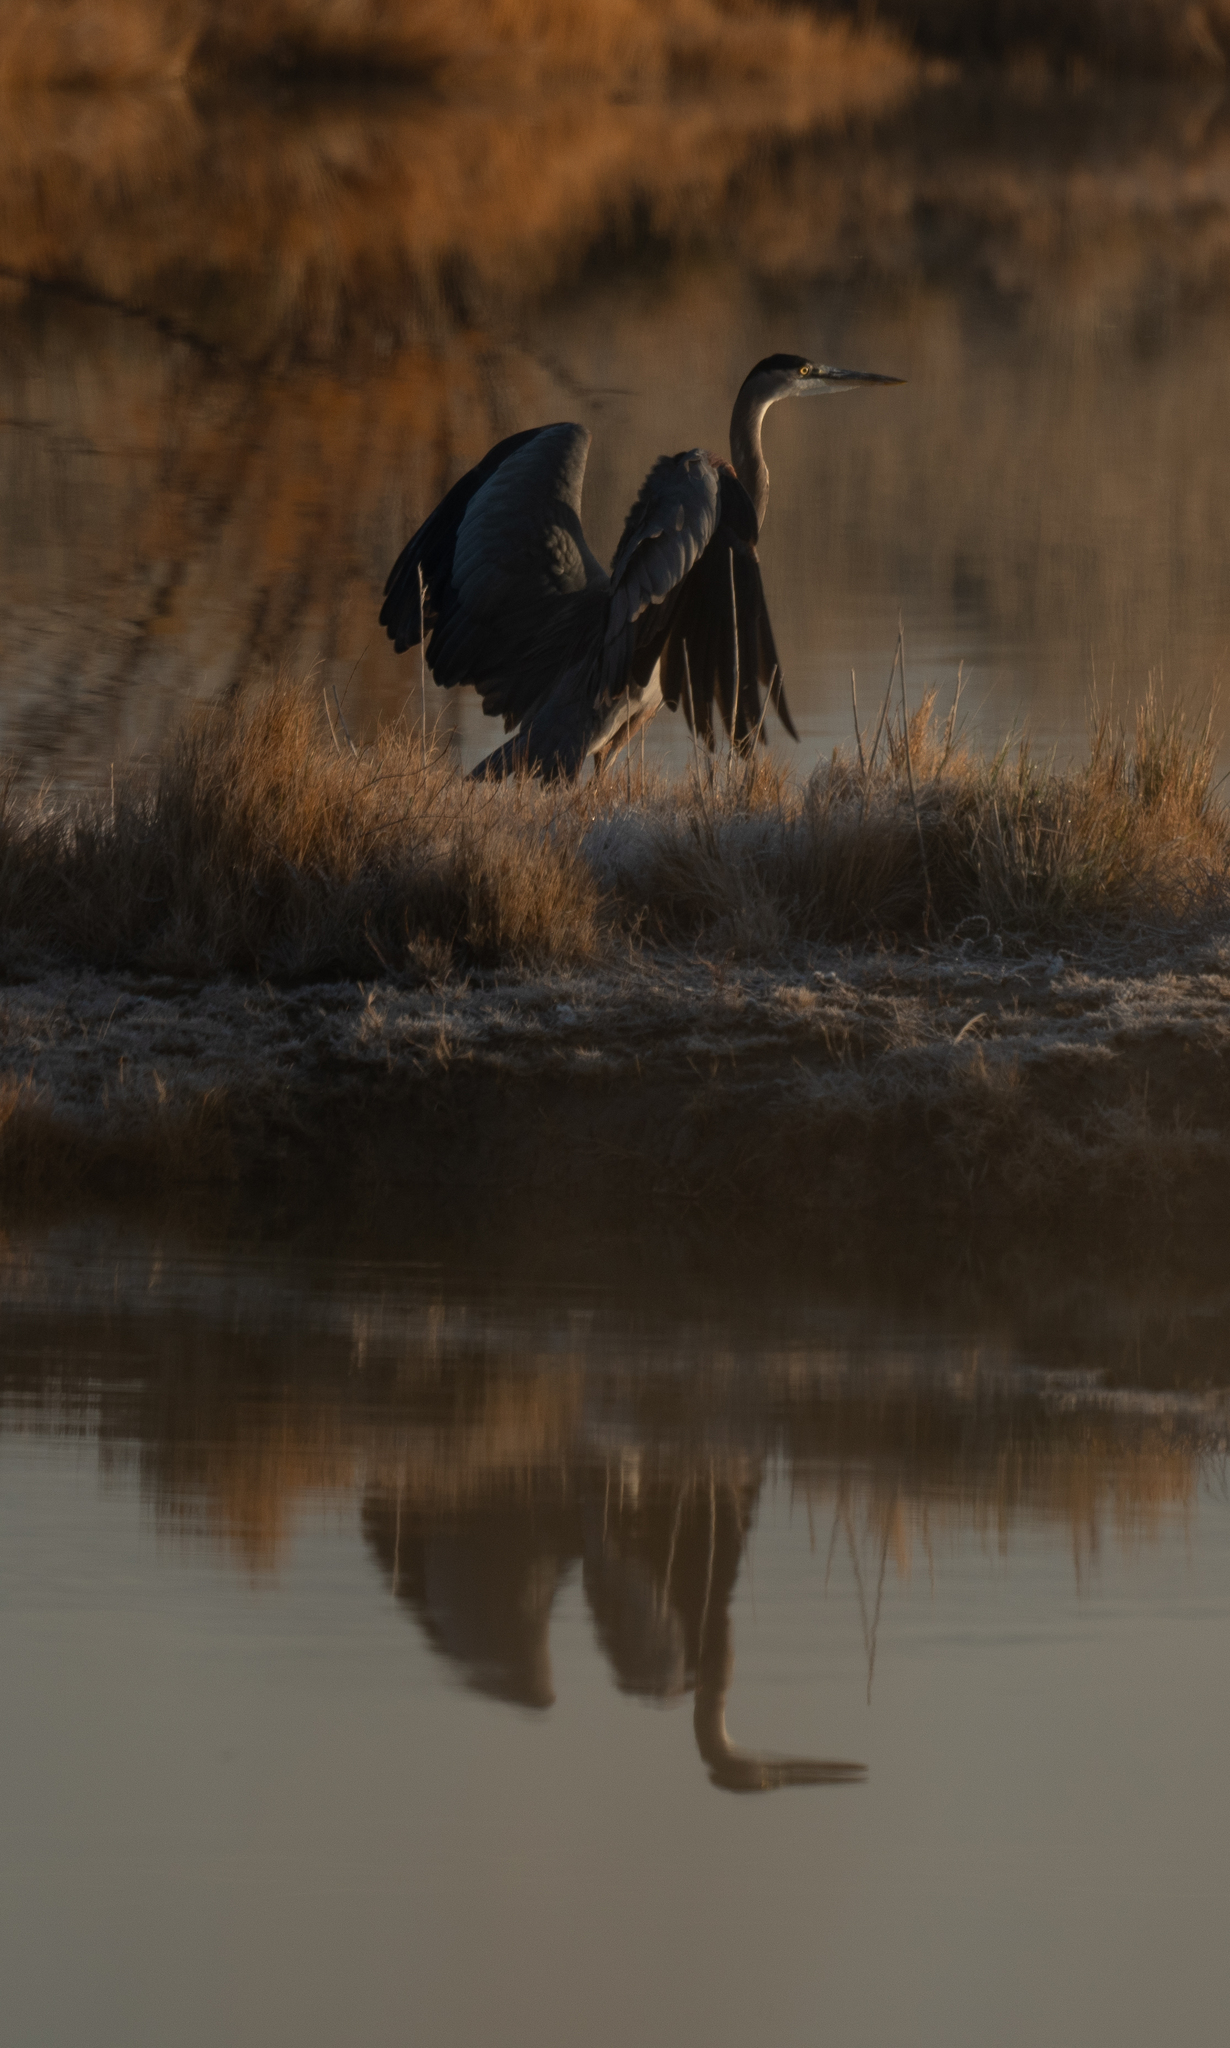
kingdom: Animalia
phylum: Chordata
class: Aves
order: Pelecaniformes
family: Ardeidae
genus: Ardea
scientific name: Ardea herodias
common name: Great blue heron
